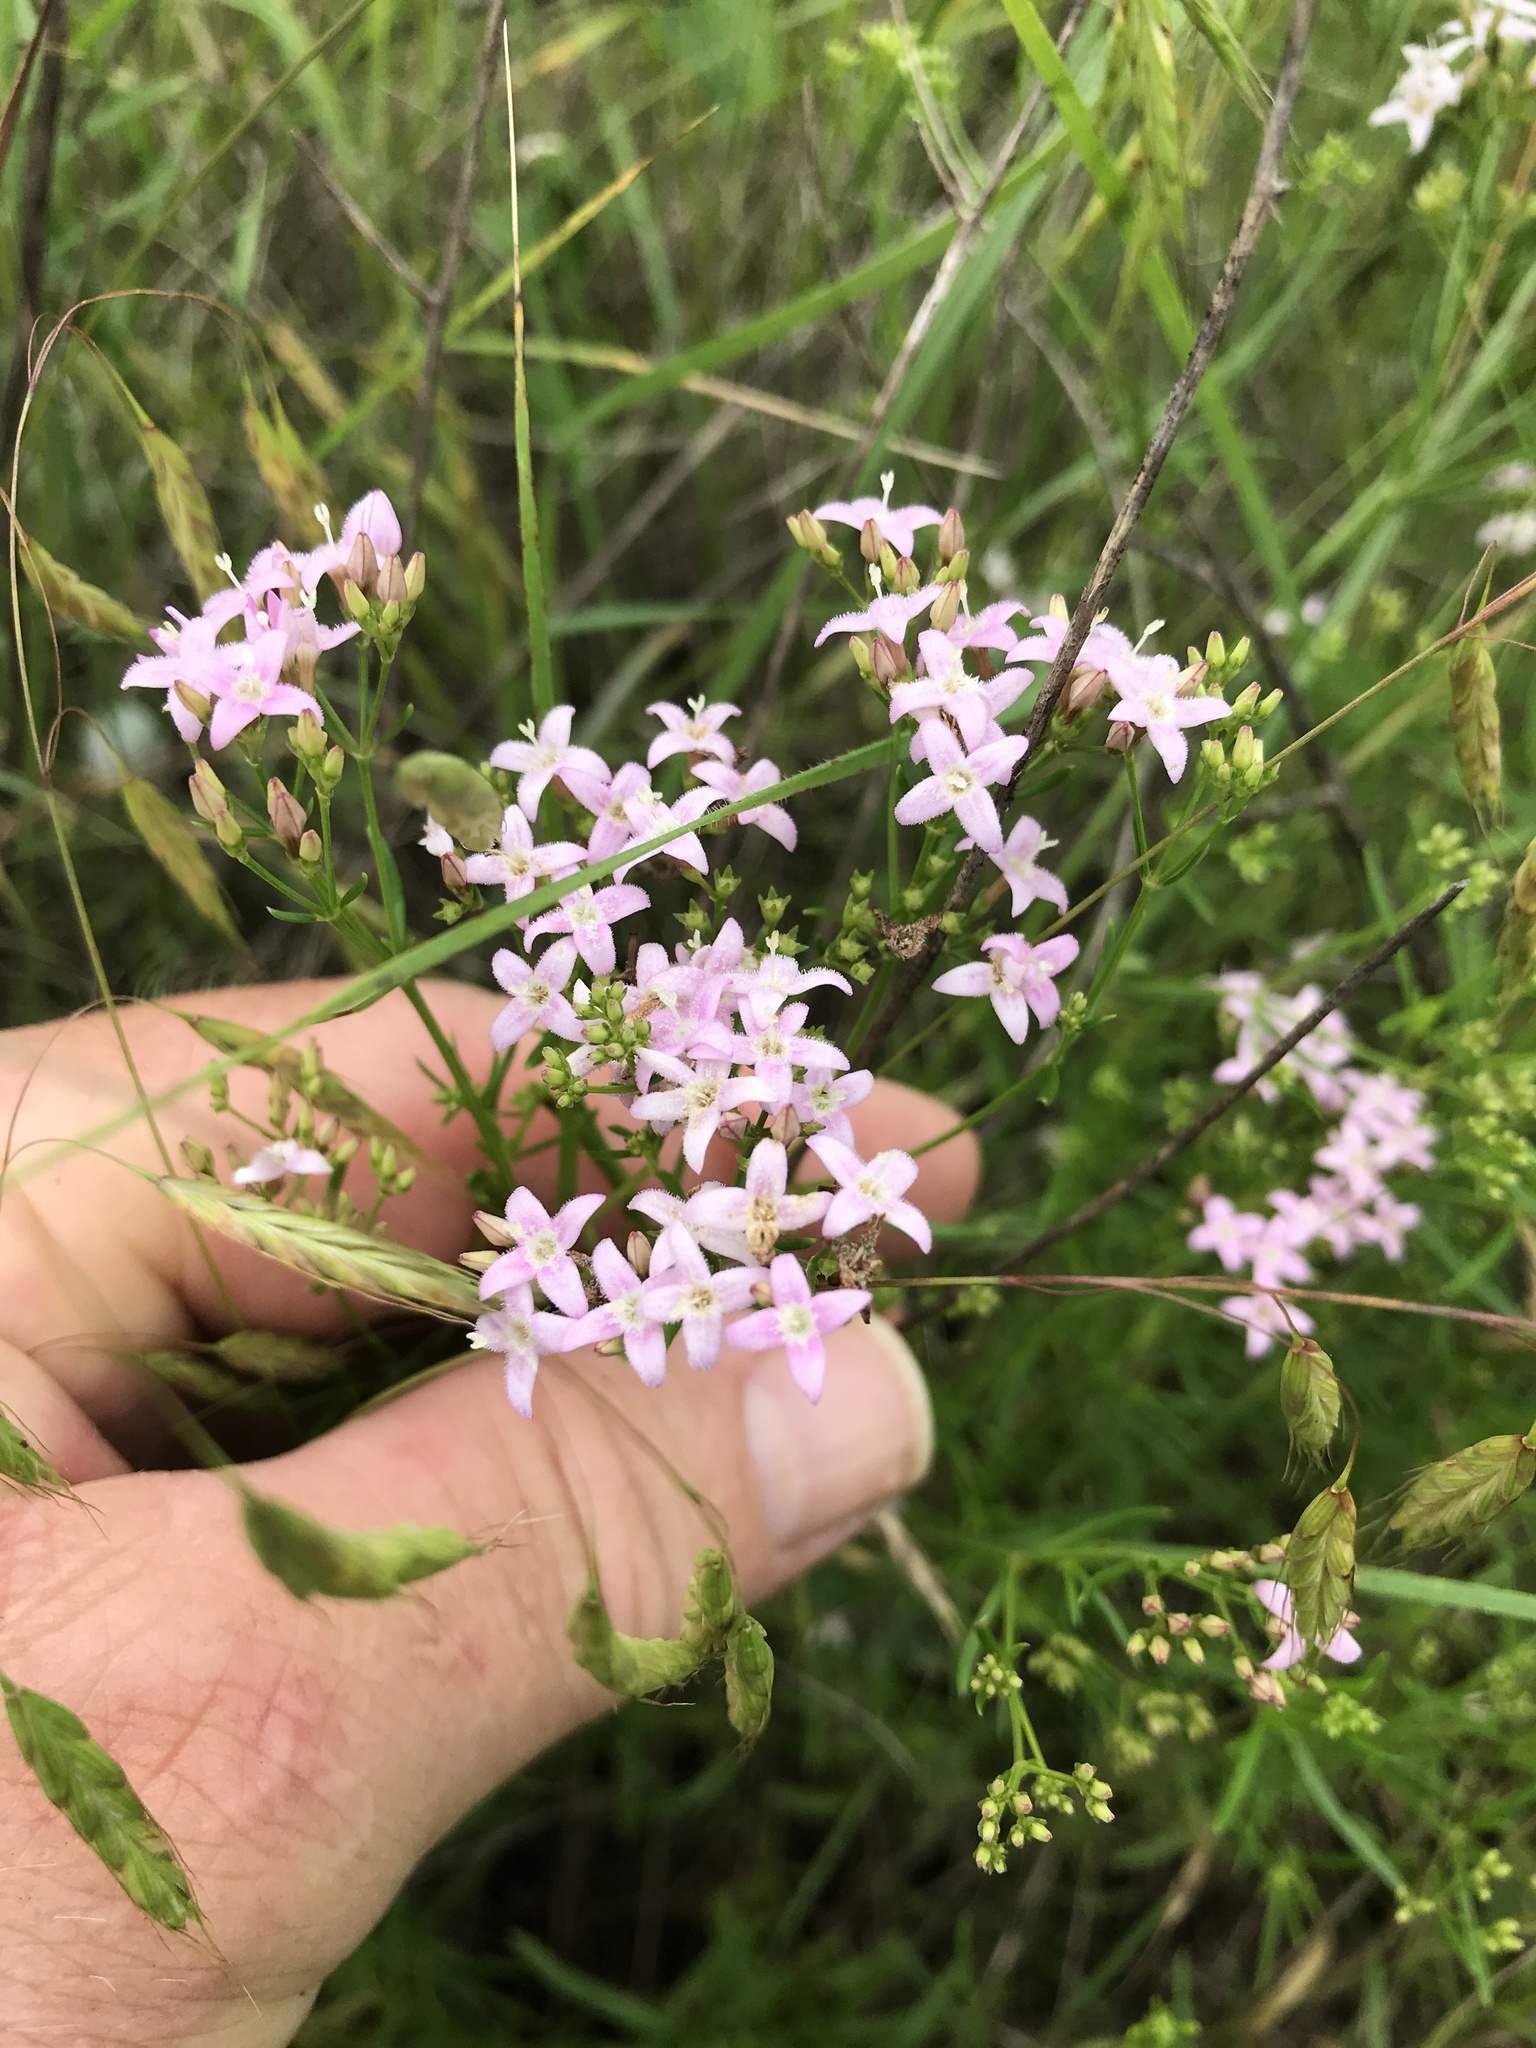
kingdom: Plantae
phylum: Tracheophyta
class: Magnoliopsida
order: Gentianales
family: Rubiaceae
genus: Stenaria
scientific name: Stenaria nigricans
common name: Diamondflowers
